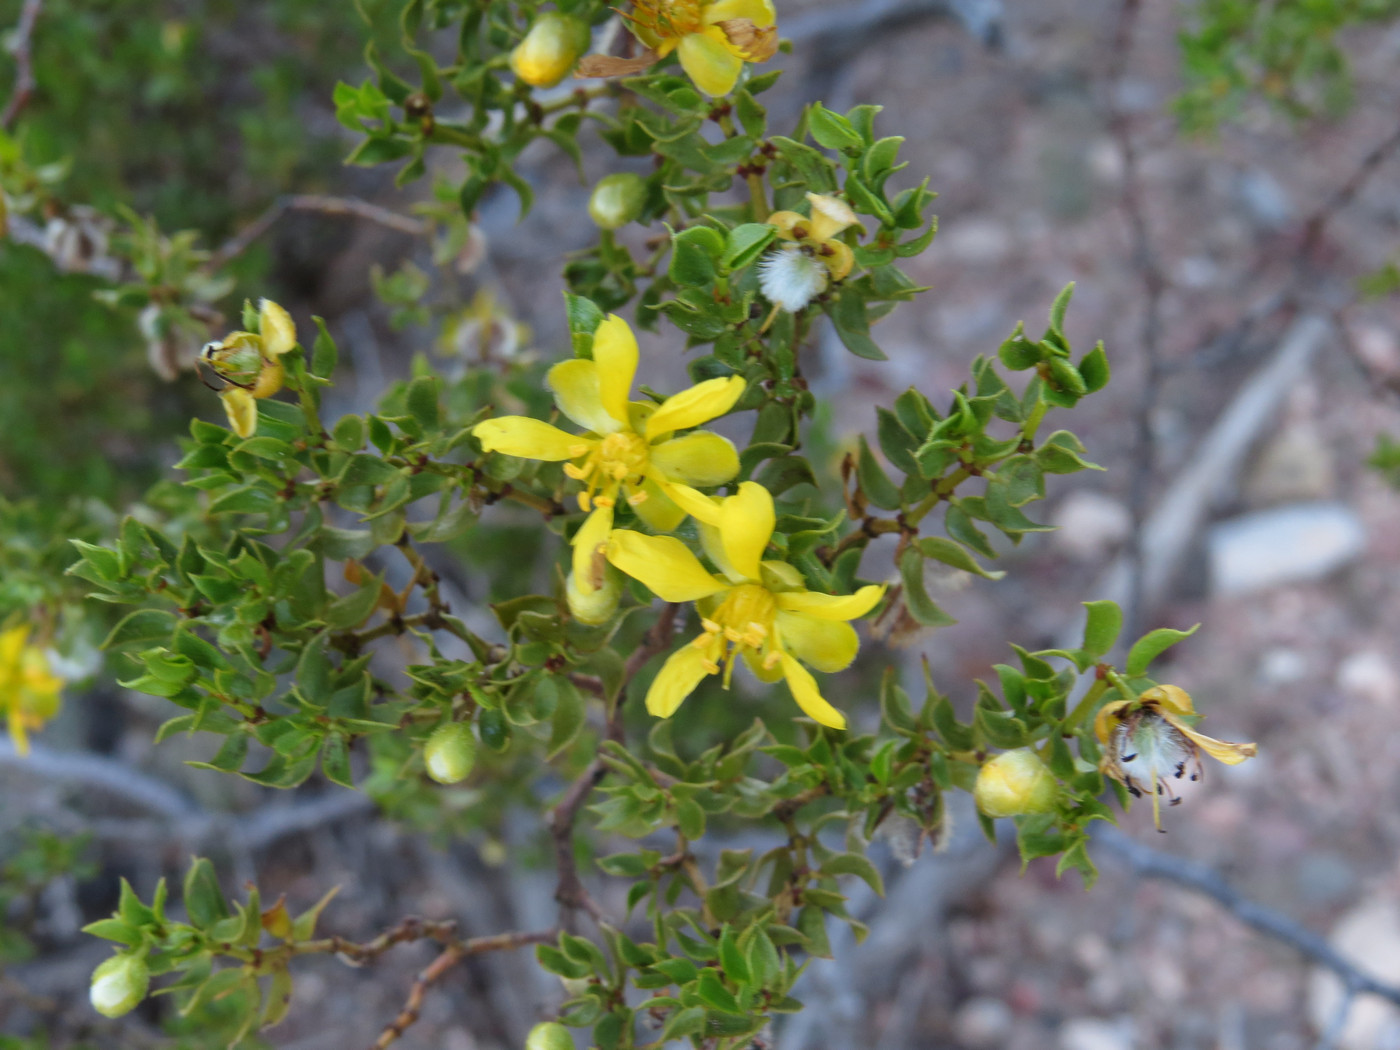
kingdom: Plantae
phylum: Tracheophyta
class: Magnoliopsida
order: Zygophyllales
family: Zygophyllaceae
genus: Larrea
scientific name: Larrea tridentata
